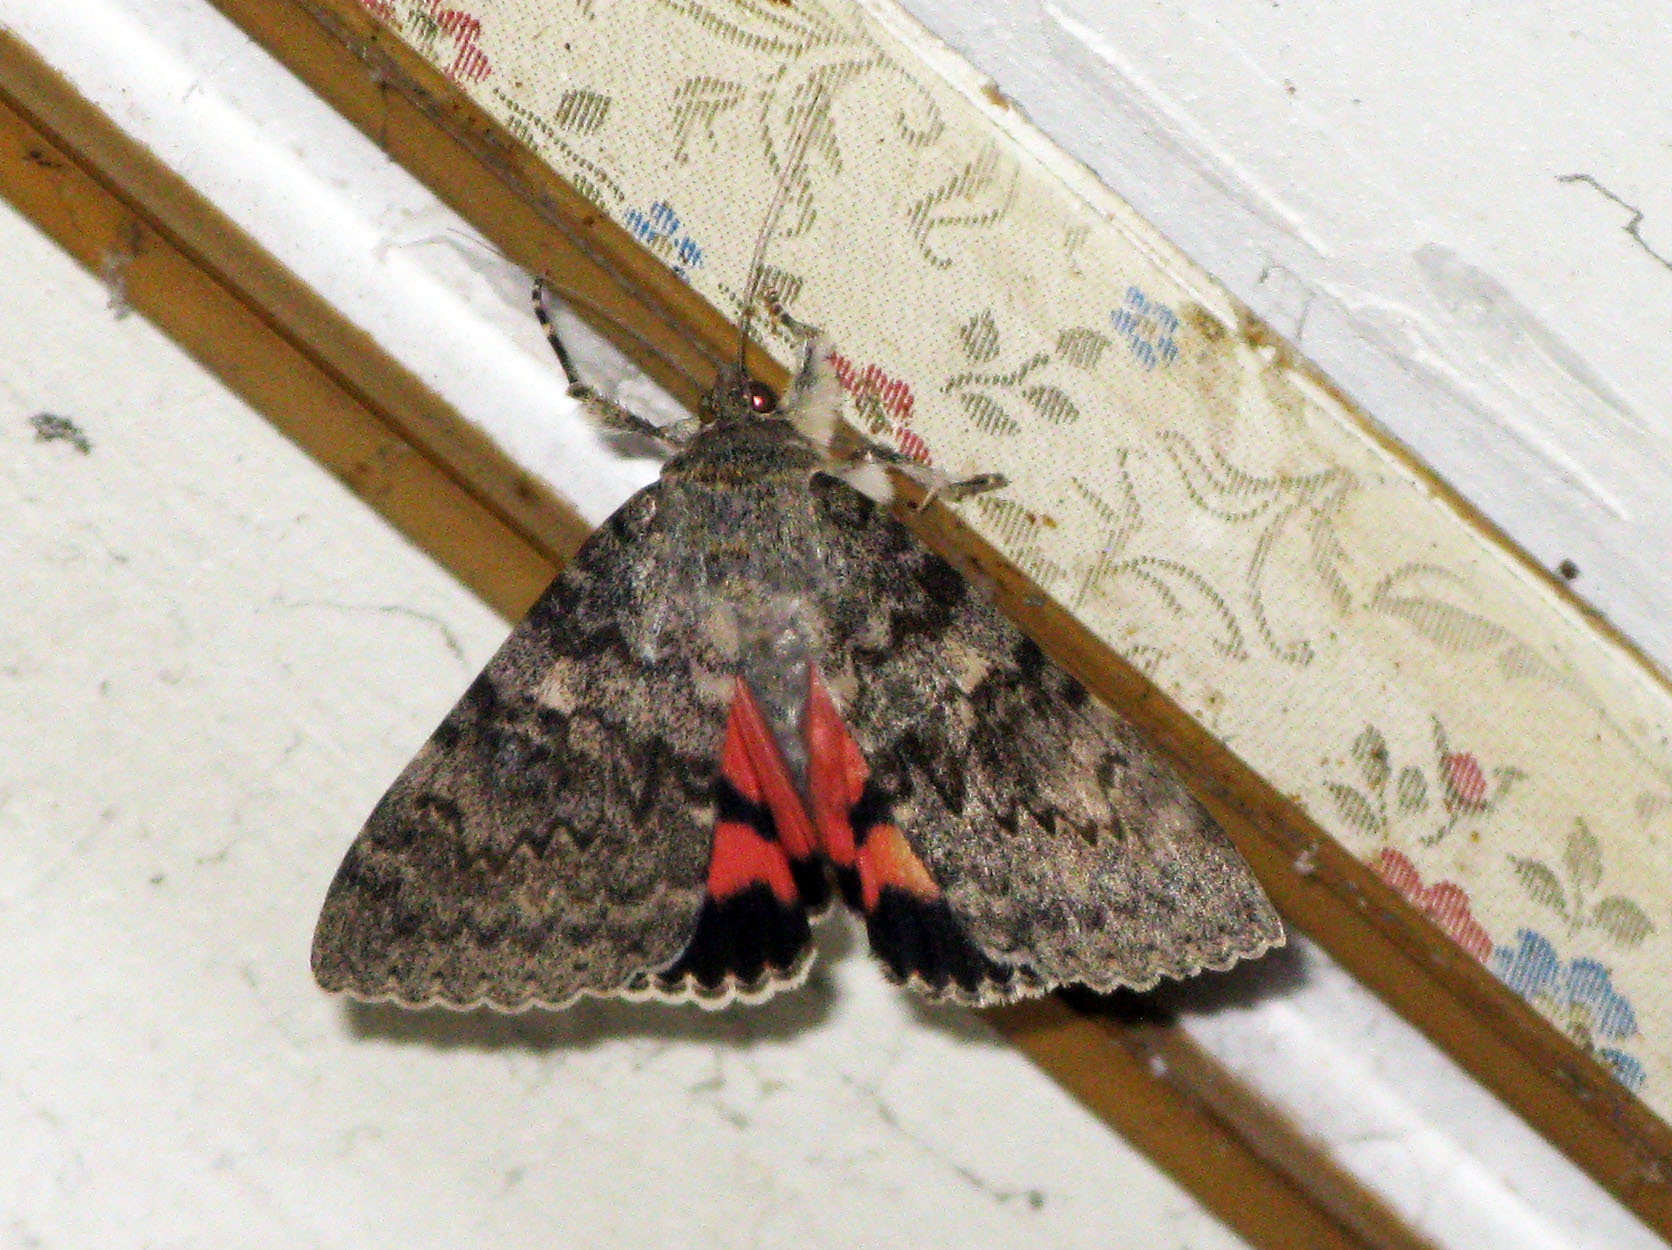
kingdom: Animalia
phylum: Arthropoda
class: Insecta
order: Lepidoptera
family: Erebidae
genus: Catocala
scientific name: Catocala elocata
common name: French red underwing
